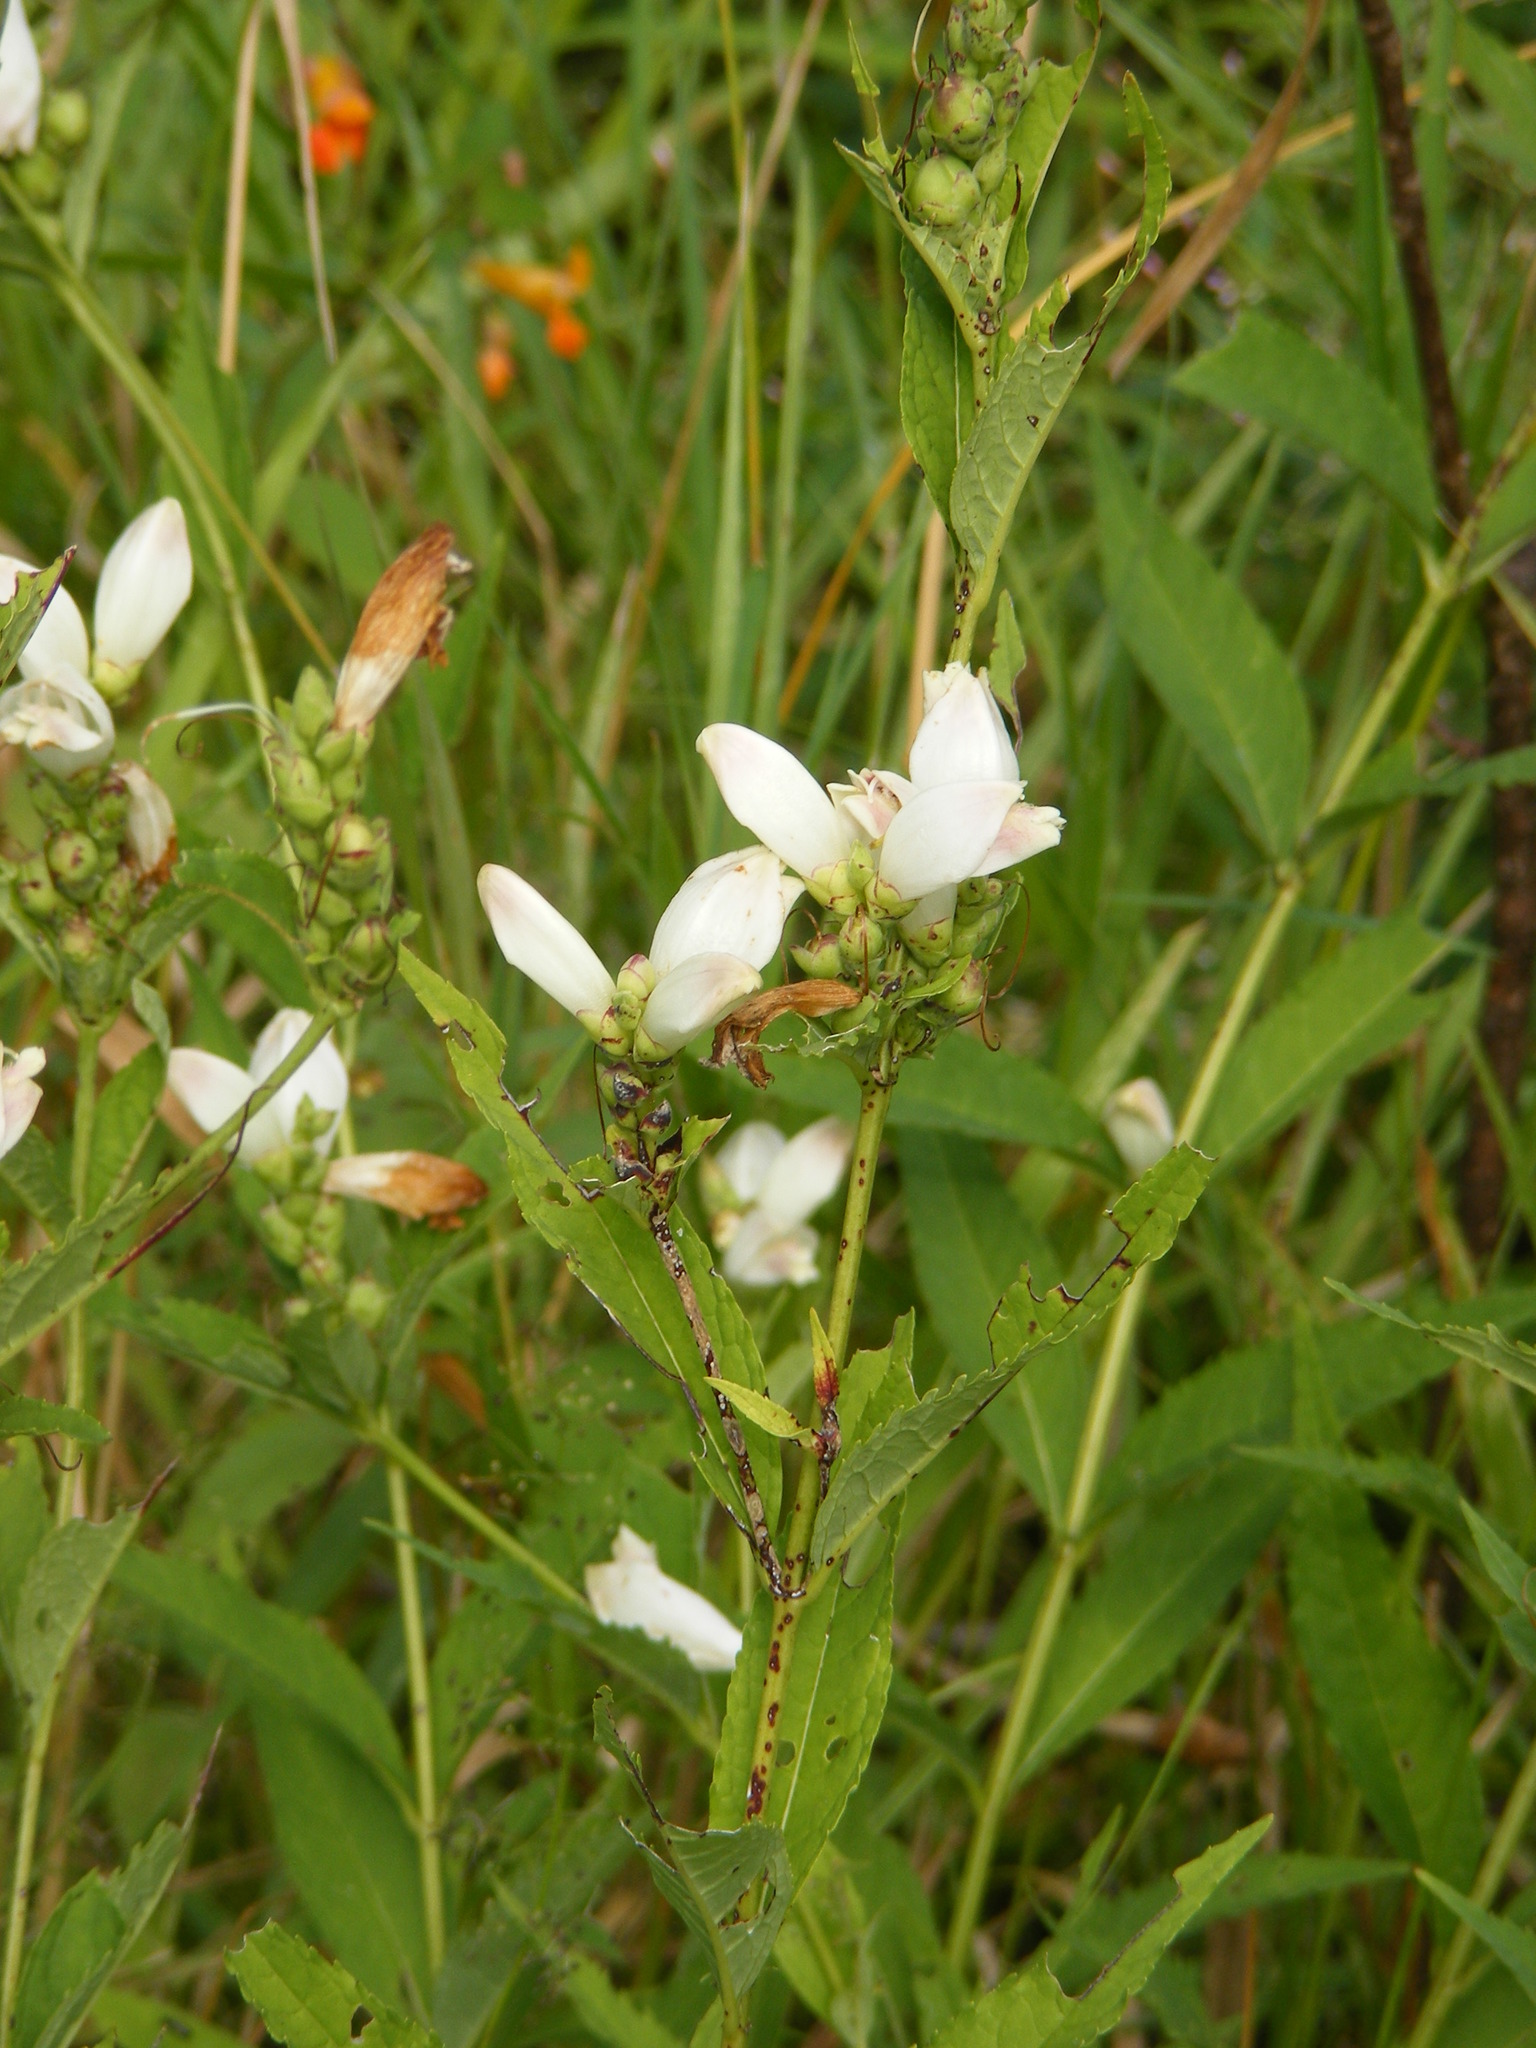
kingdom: Plantae
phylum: Tracheophyta
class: Magnoliopsida
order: Lamiales
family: Plantaginaceae
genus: Chelone
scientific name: Chelone glabra
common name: Snakehead
